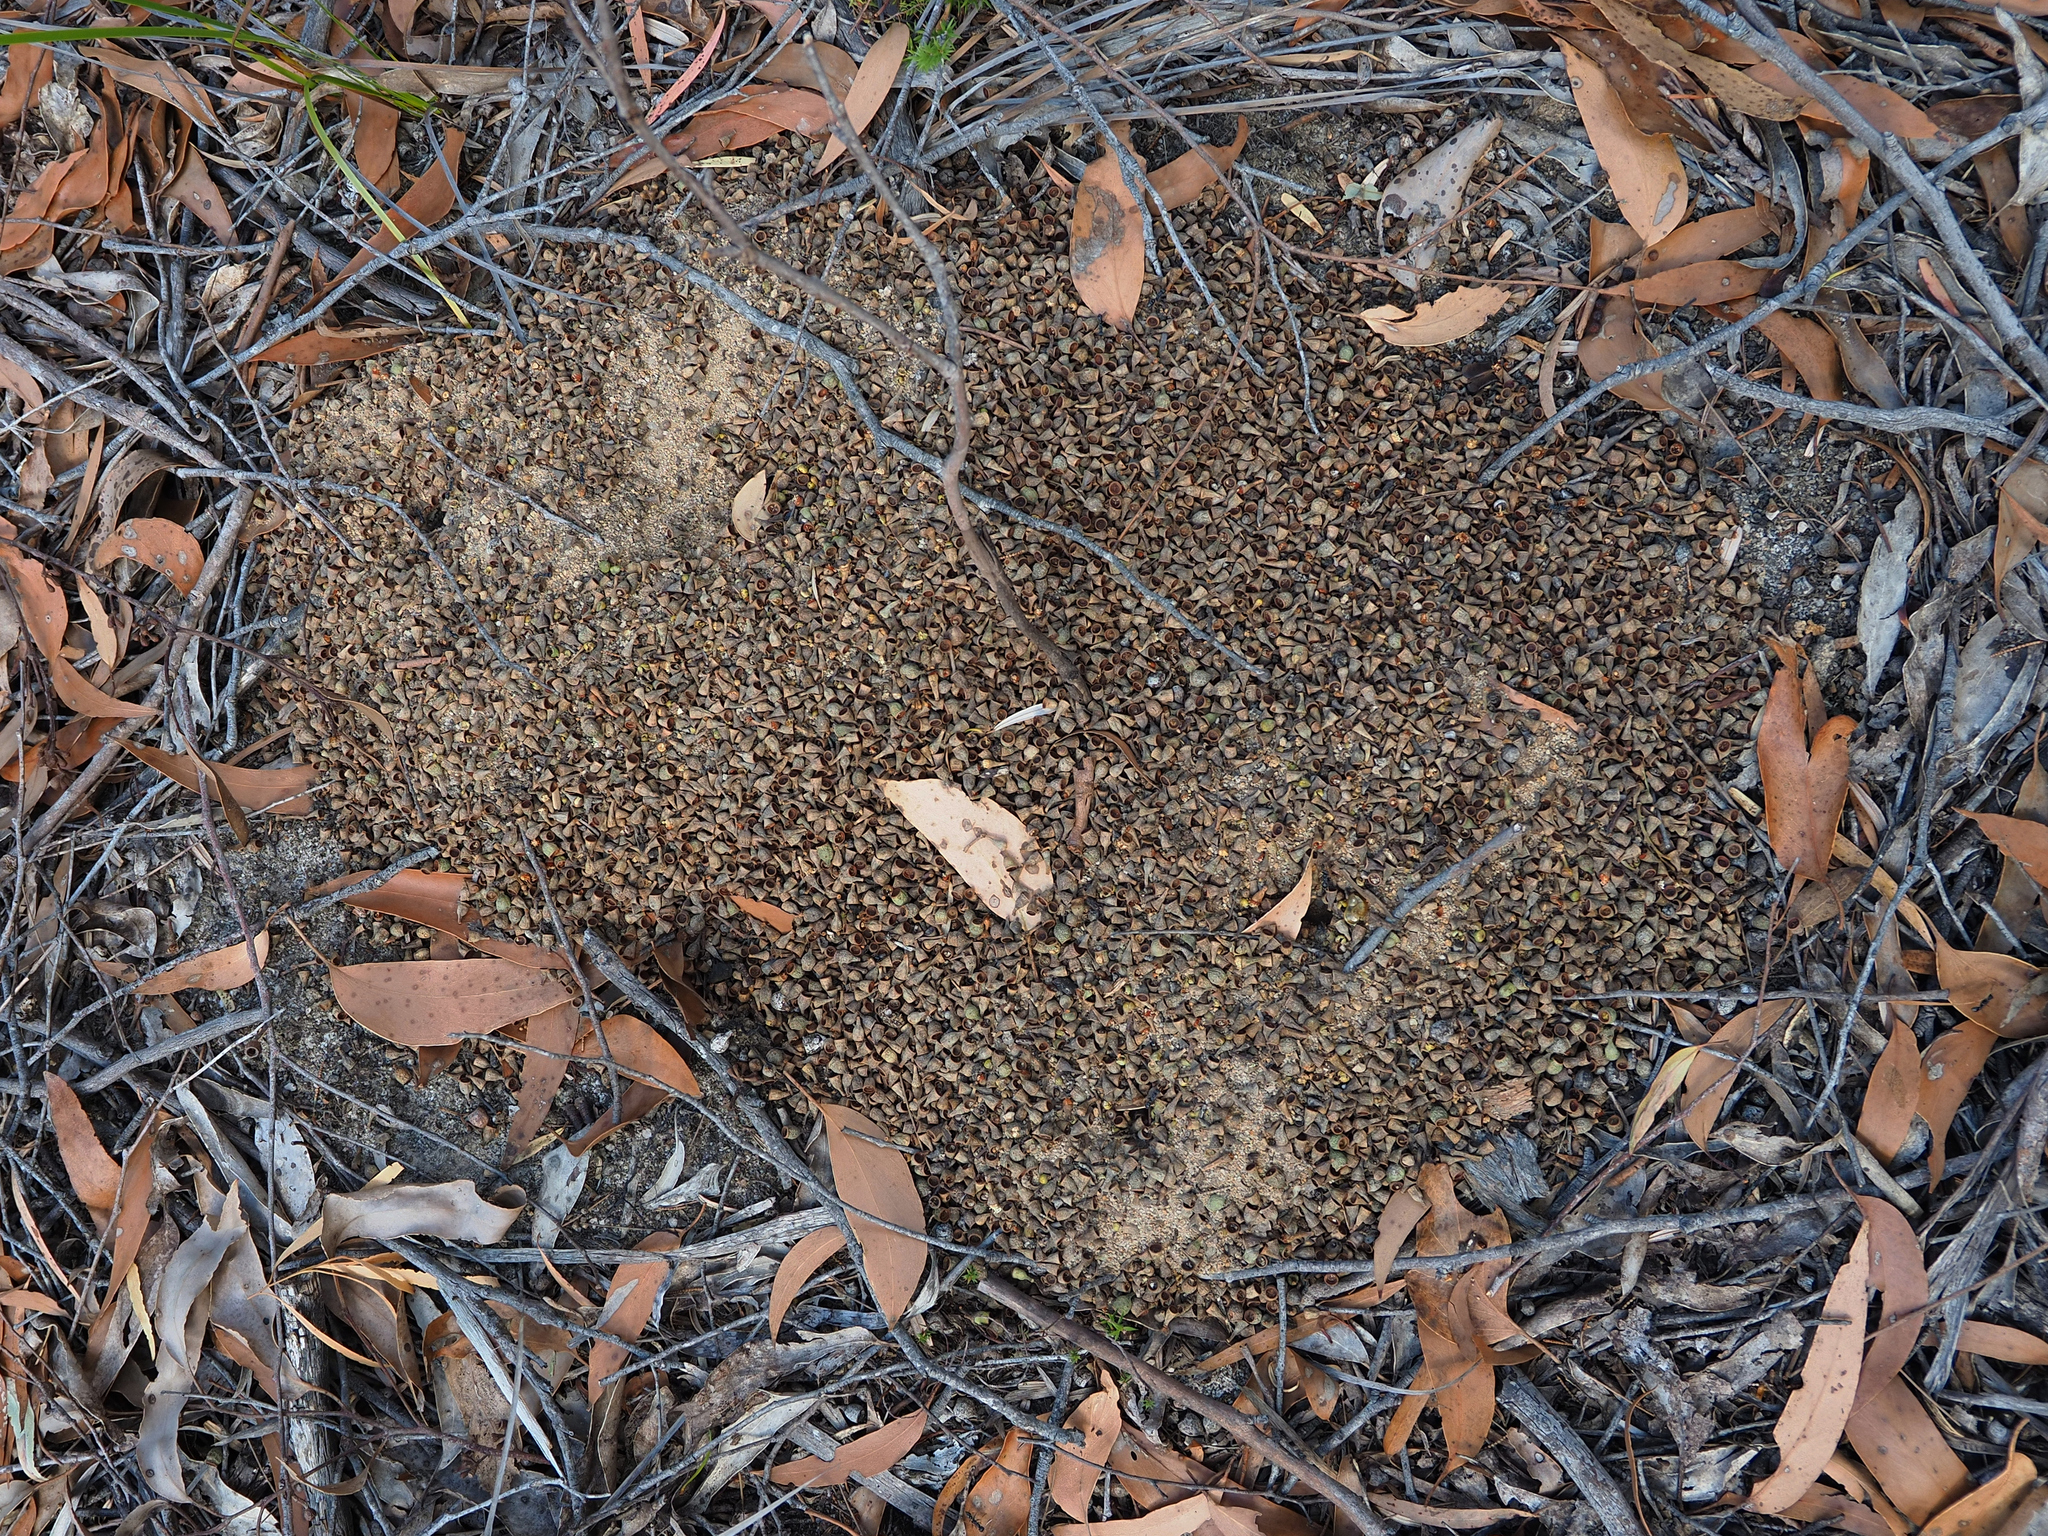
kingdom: Animalia
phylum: Arthropoda
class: Insecta
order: Hymenoptera
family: Formicidae
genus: Myrmecia
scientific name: Myrmecia pilosula
